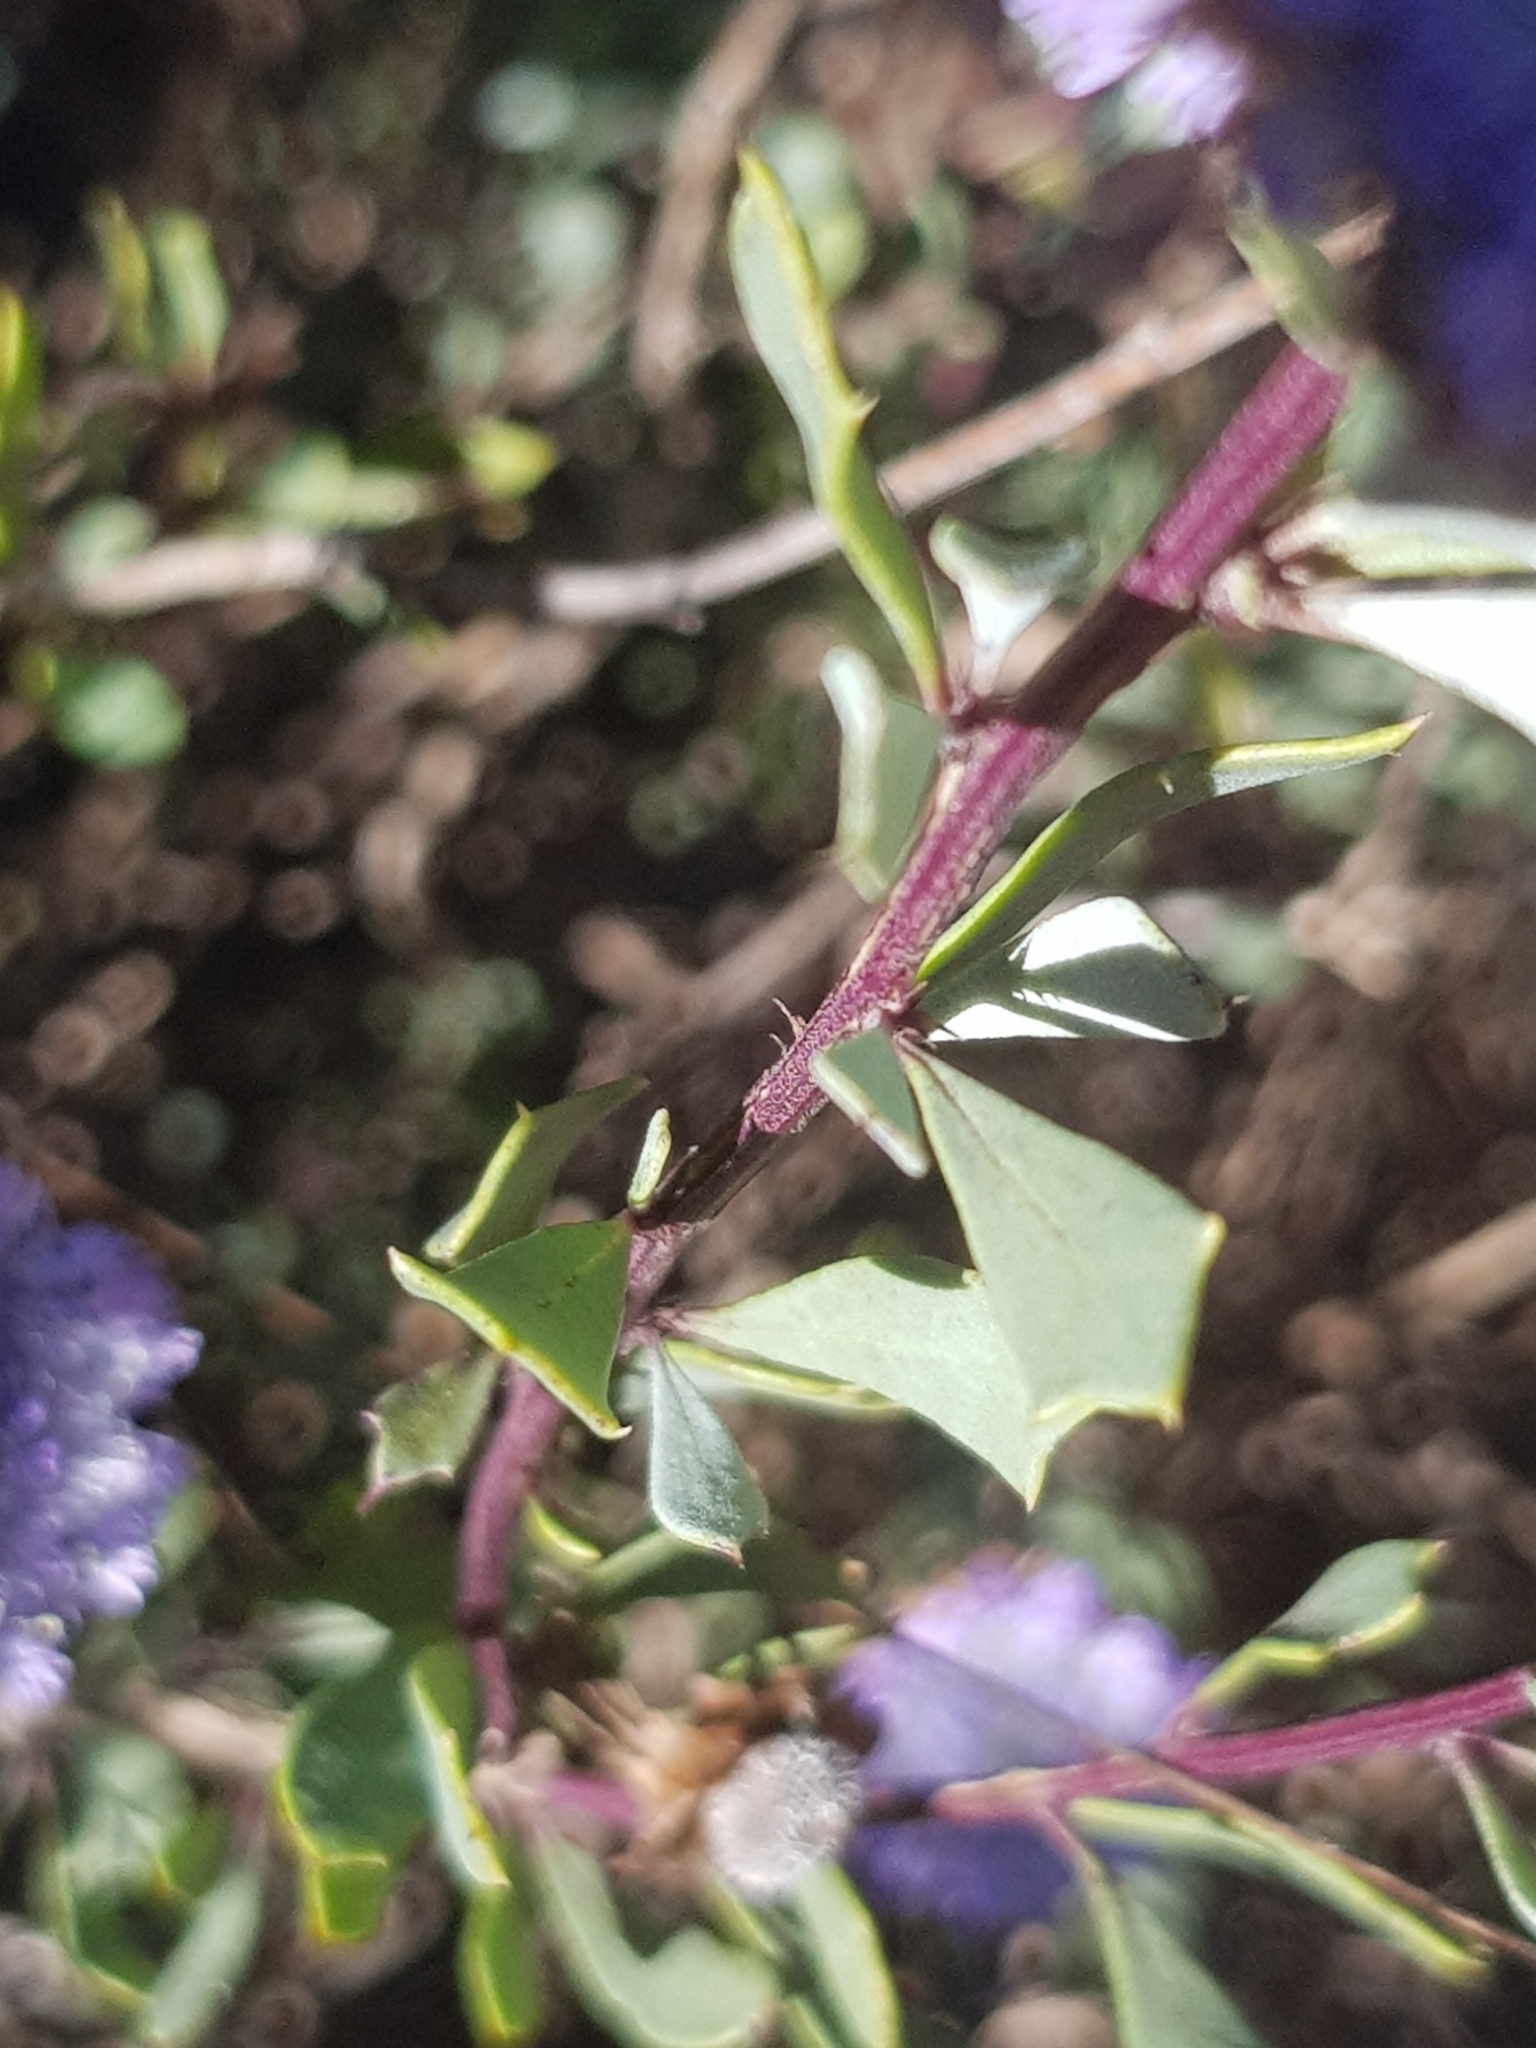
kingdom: Plantae
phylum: Tracheophyta
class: Magnoliopsida
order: Lamiales
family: Plantaginaceae
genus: Globularia
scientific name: Globularia alypum
